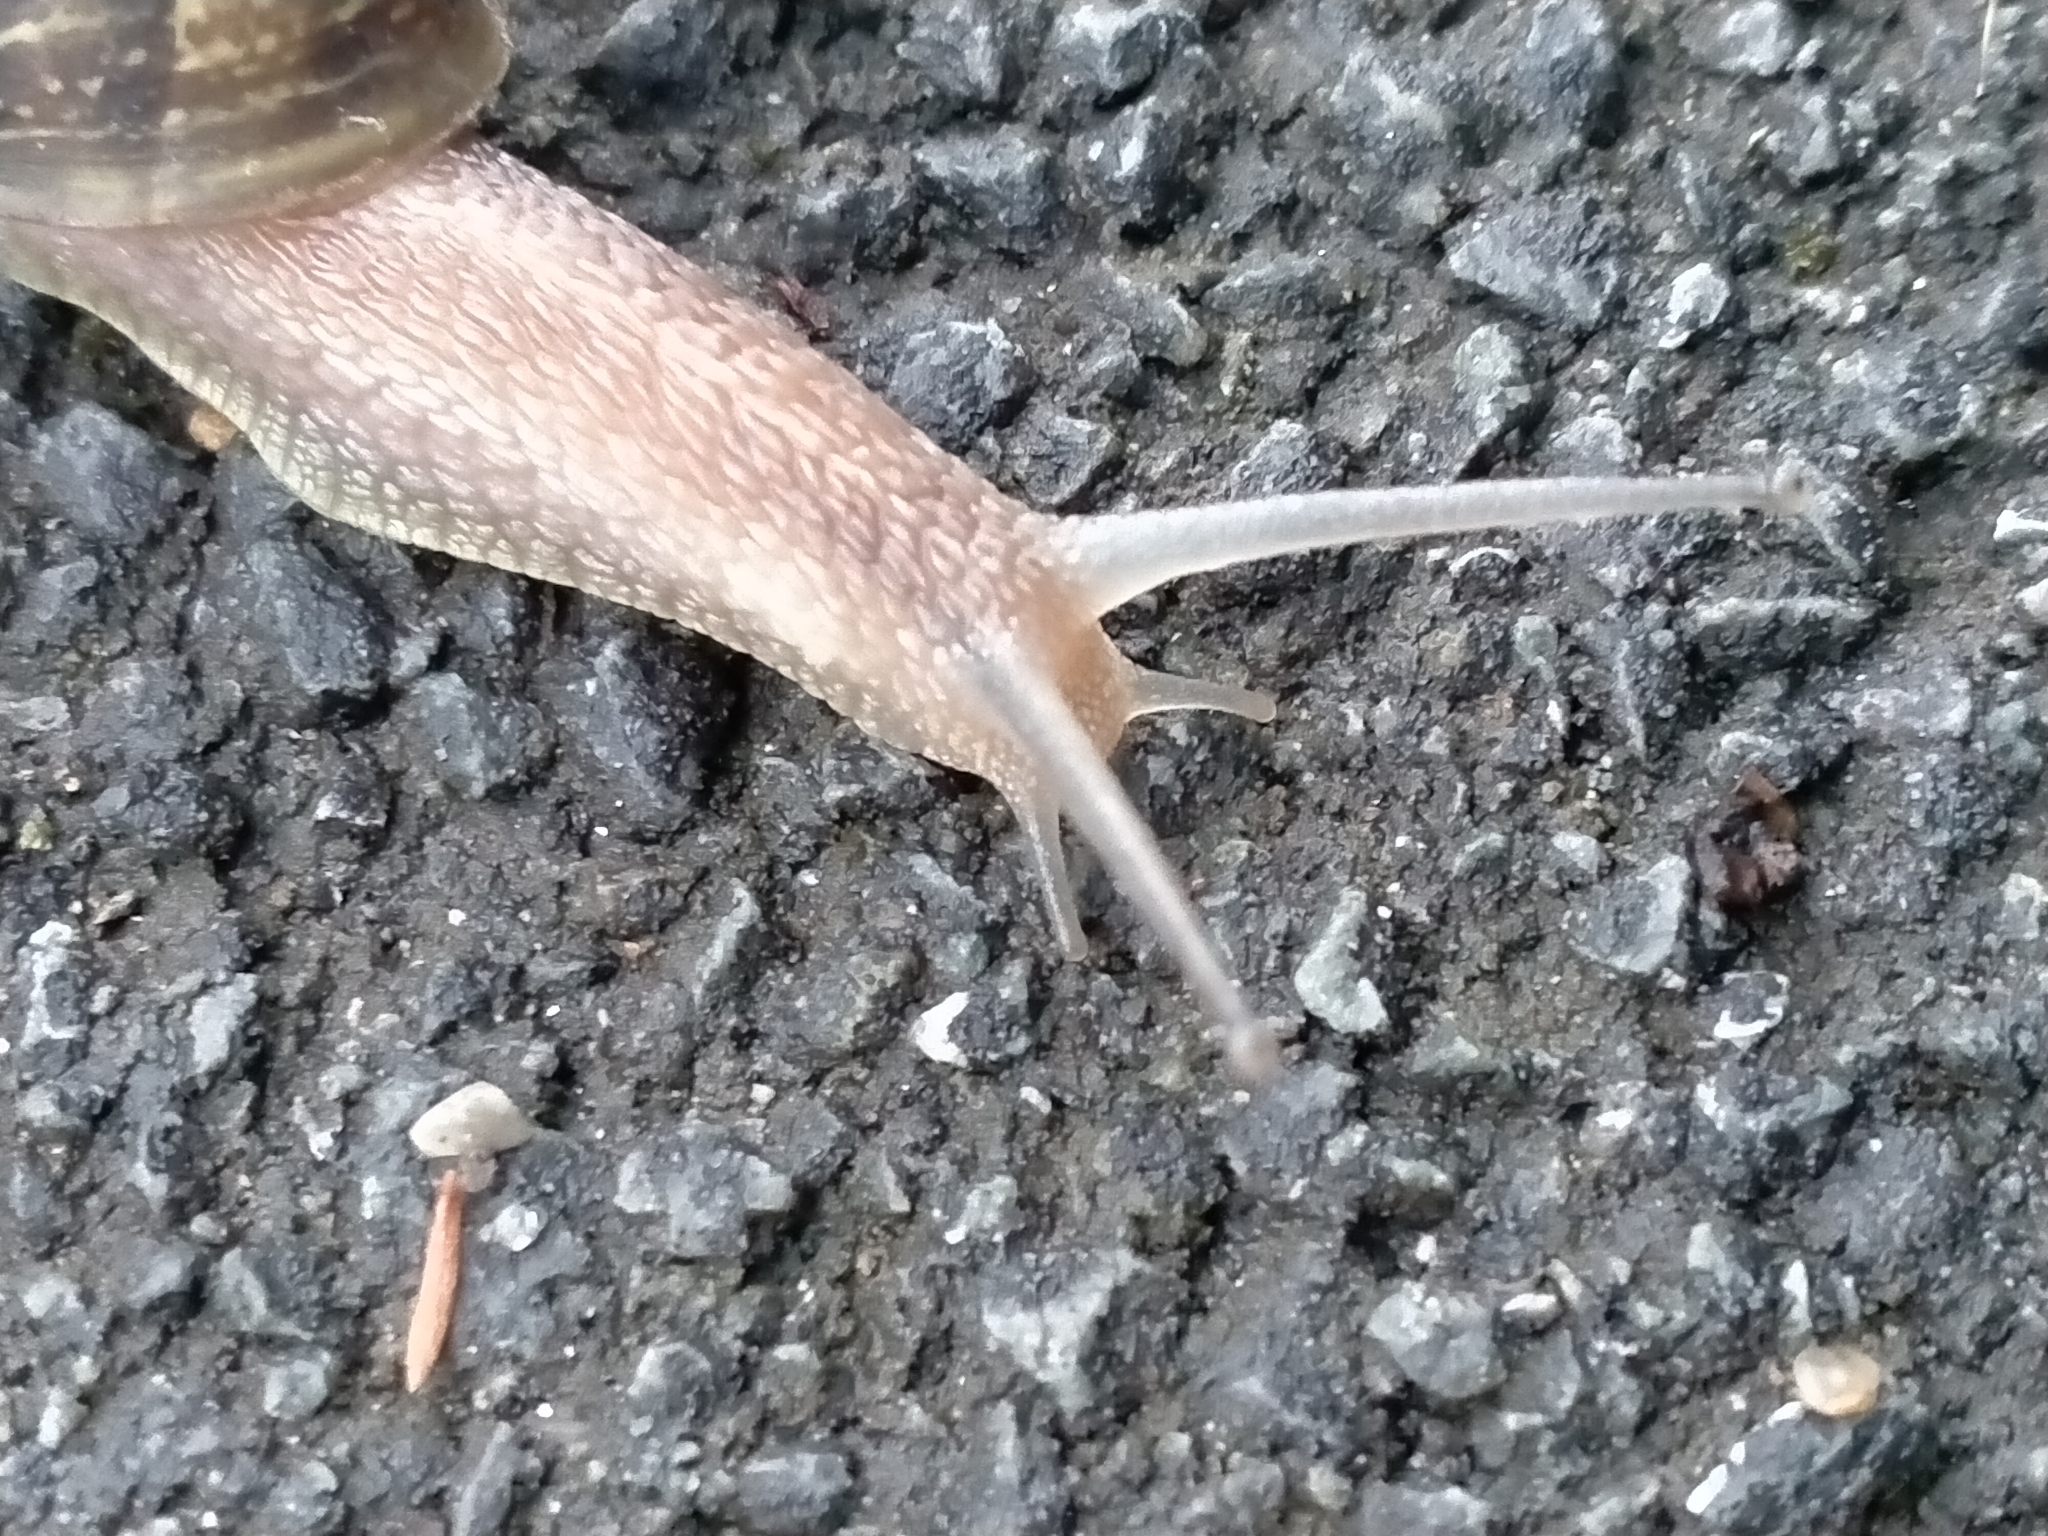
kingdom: Animalia
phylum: Mollusca
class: Gastropoda
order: Stylommatophora
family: Helicidae
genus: Cornu
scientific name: Cornu aspersum
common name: Brown garden snail
